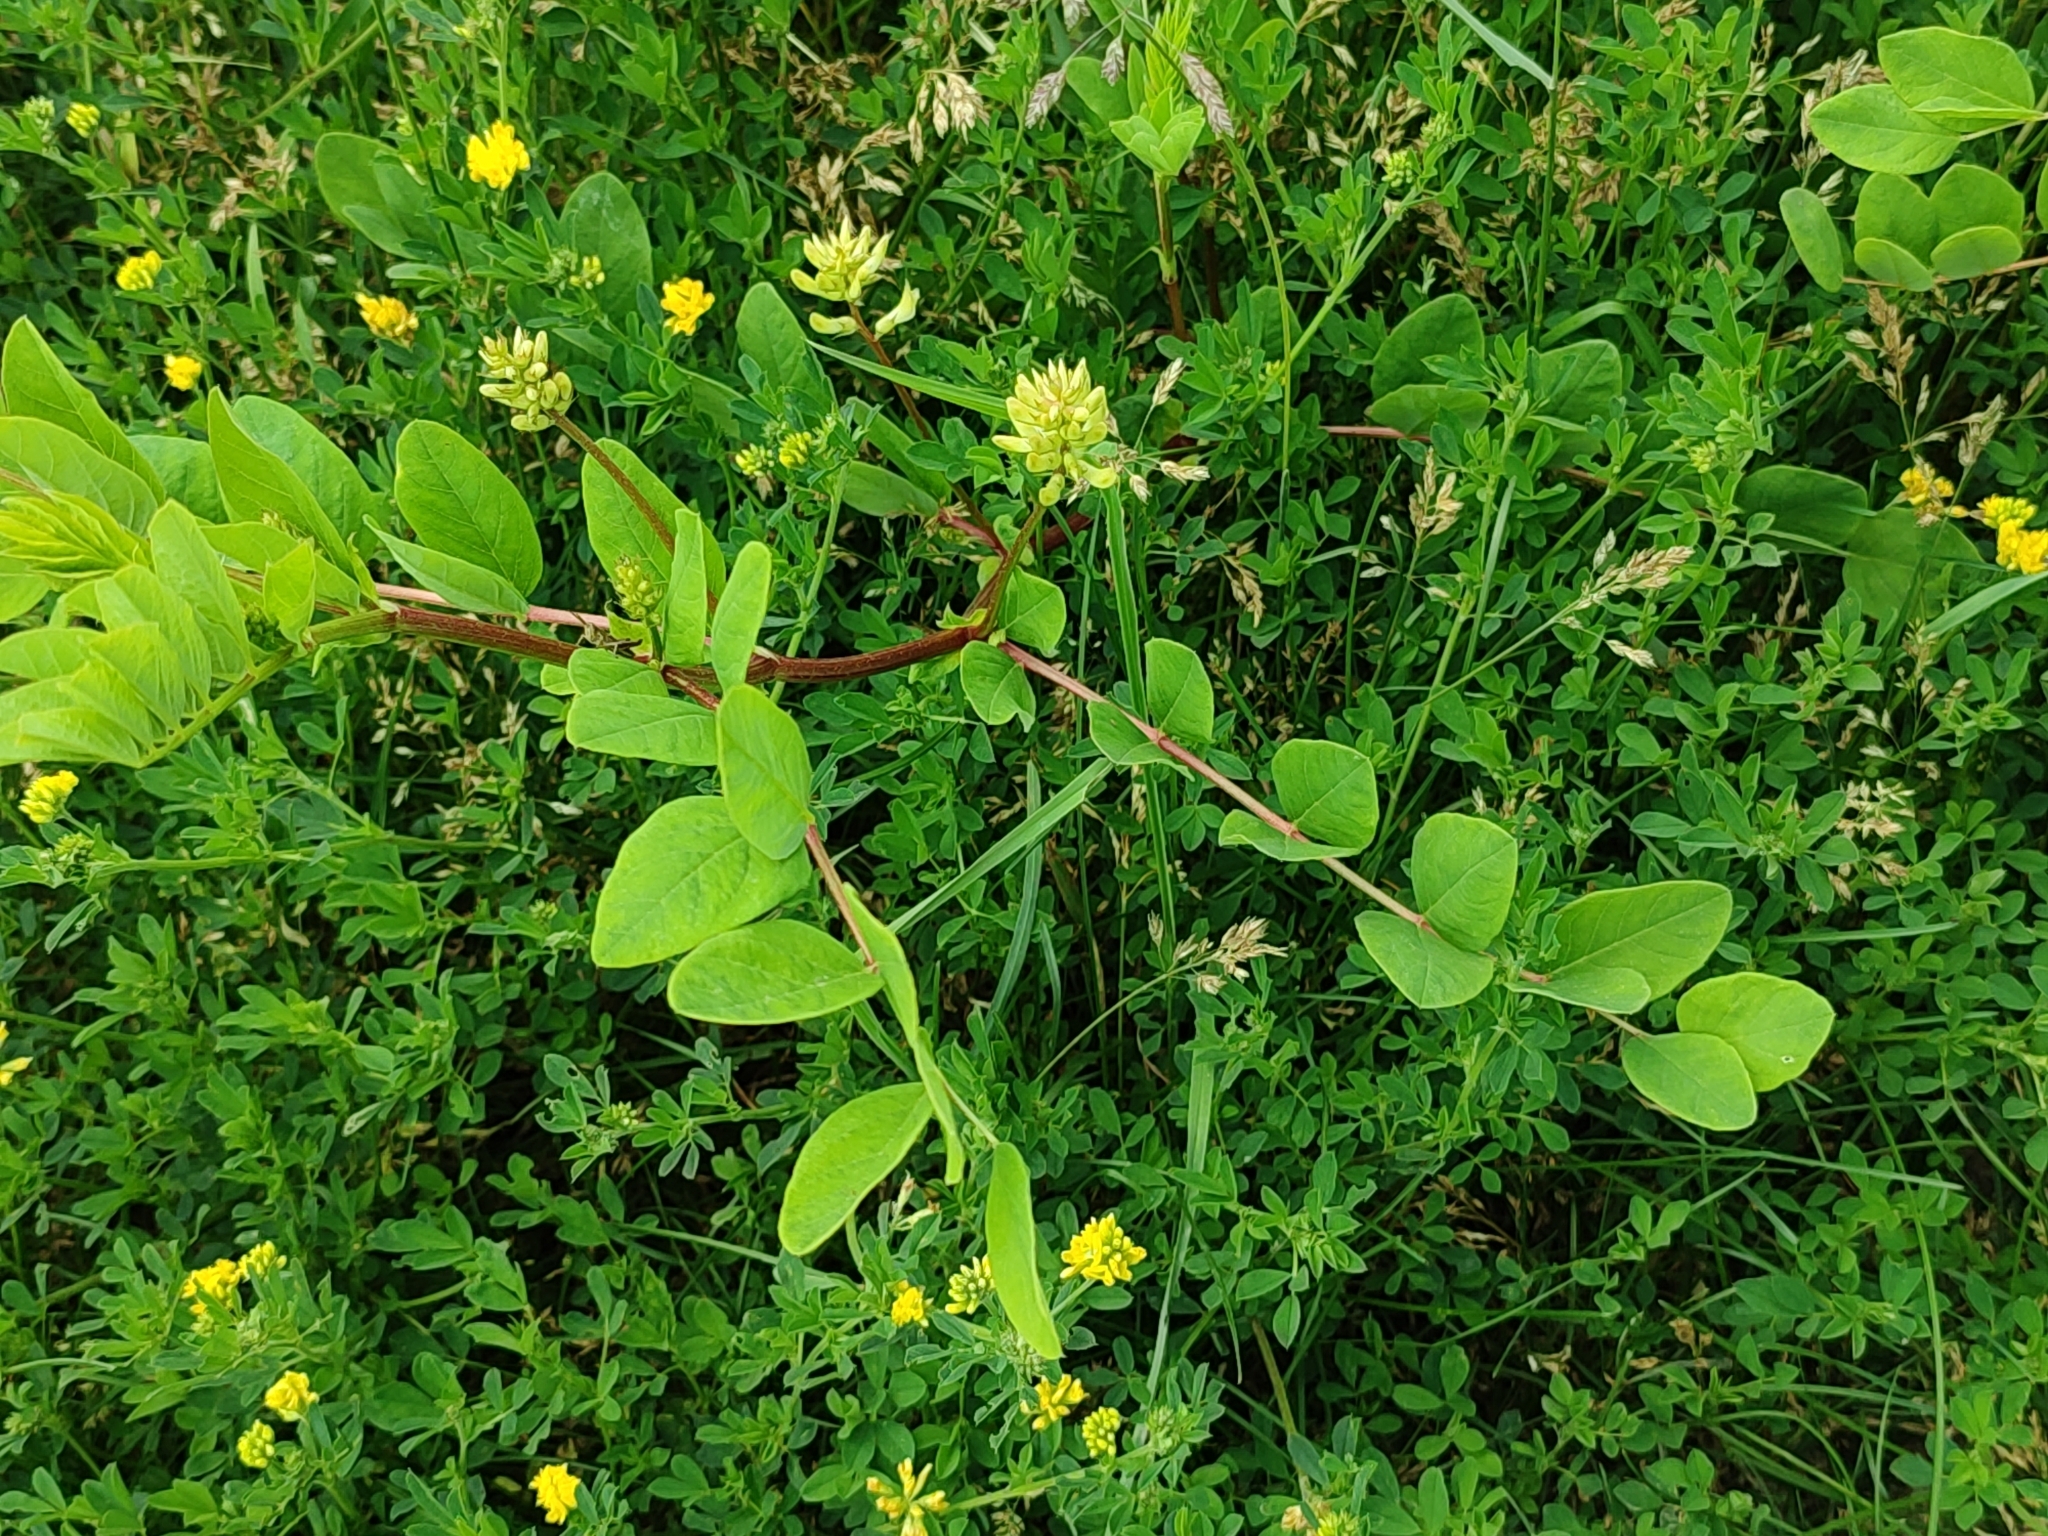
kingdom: Plantae
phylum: Tracheophyta
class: Magnoliopsida
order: Fabales
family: Fabaceae
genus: Astragalus
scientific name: Astragalus glycyphyllos
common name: Wild liquorice
